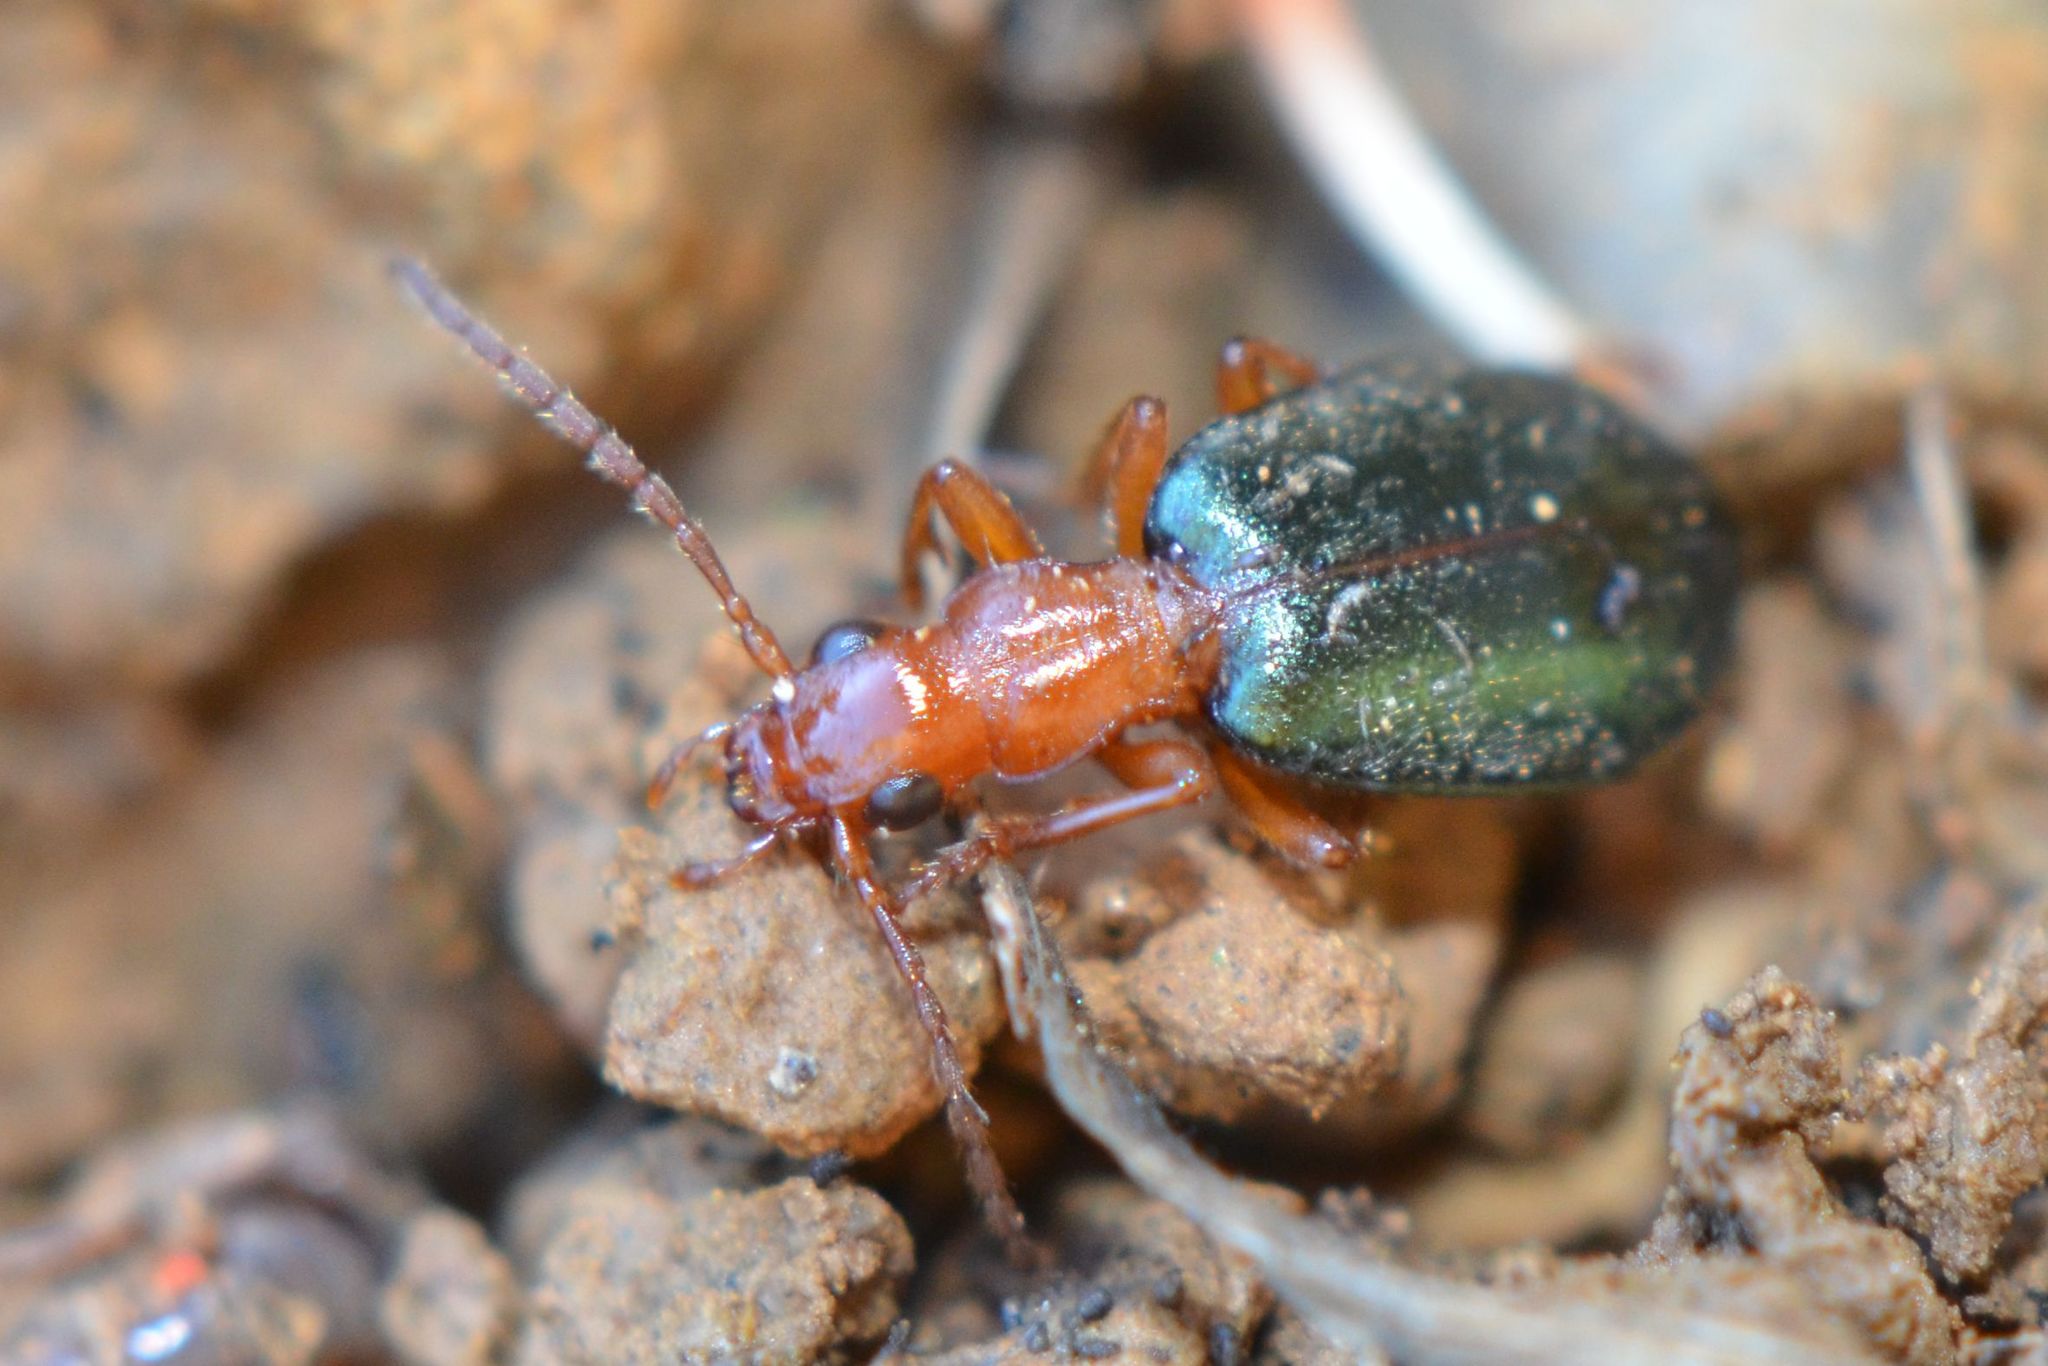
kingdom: Animalia
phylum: Arthropoda
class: Insecta
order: Coleoptera
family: Carabidae
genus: Brachinus
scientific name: Brachinus explodens
